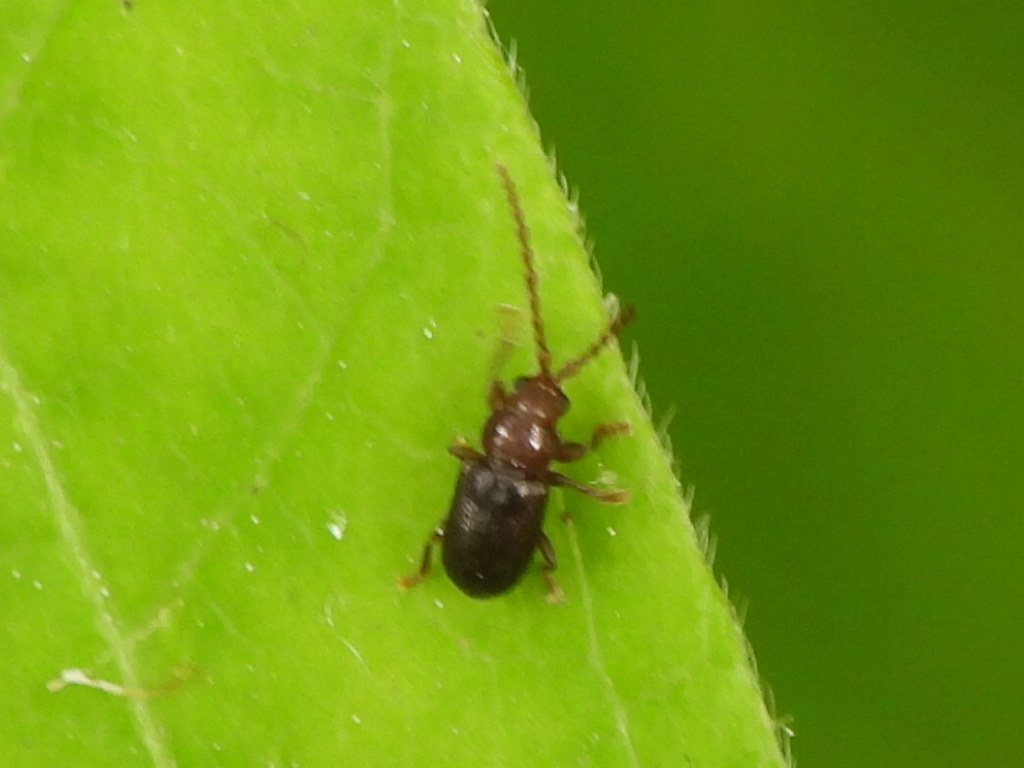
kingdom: Animalia
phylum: Arthropoda
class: Insecta
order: Coleoptera
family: Chrysomelidae
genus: Aulacothorax
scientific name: Aulacothorax
